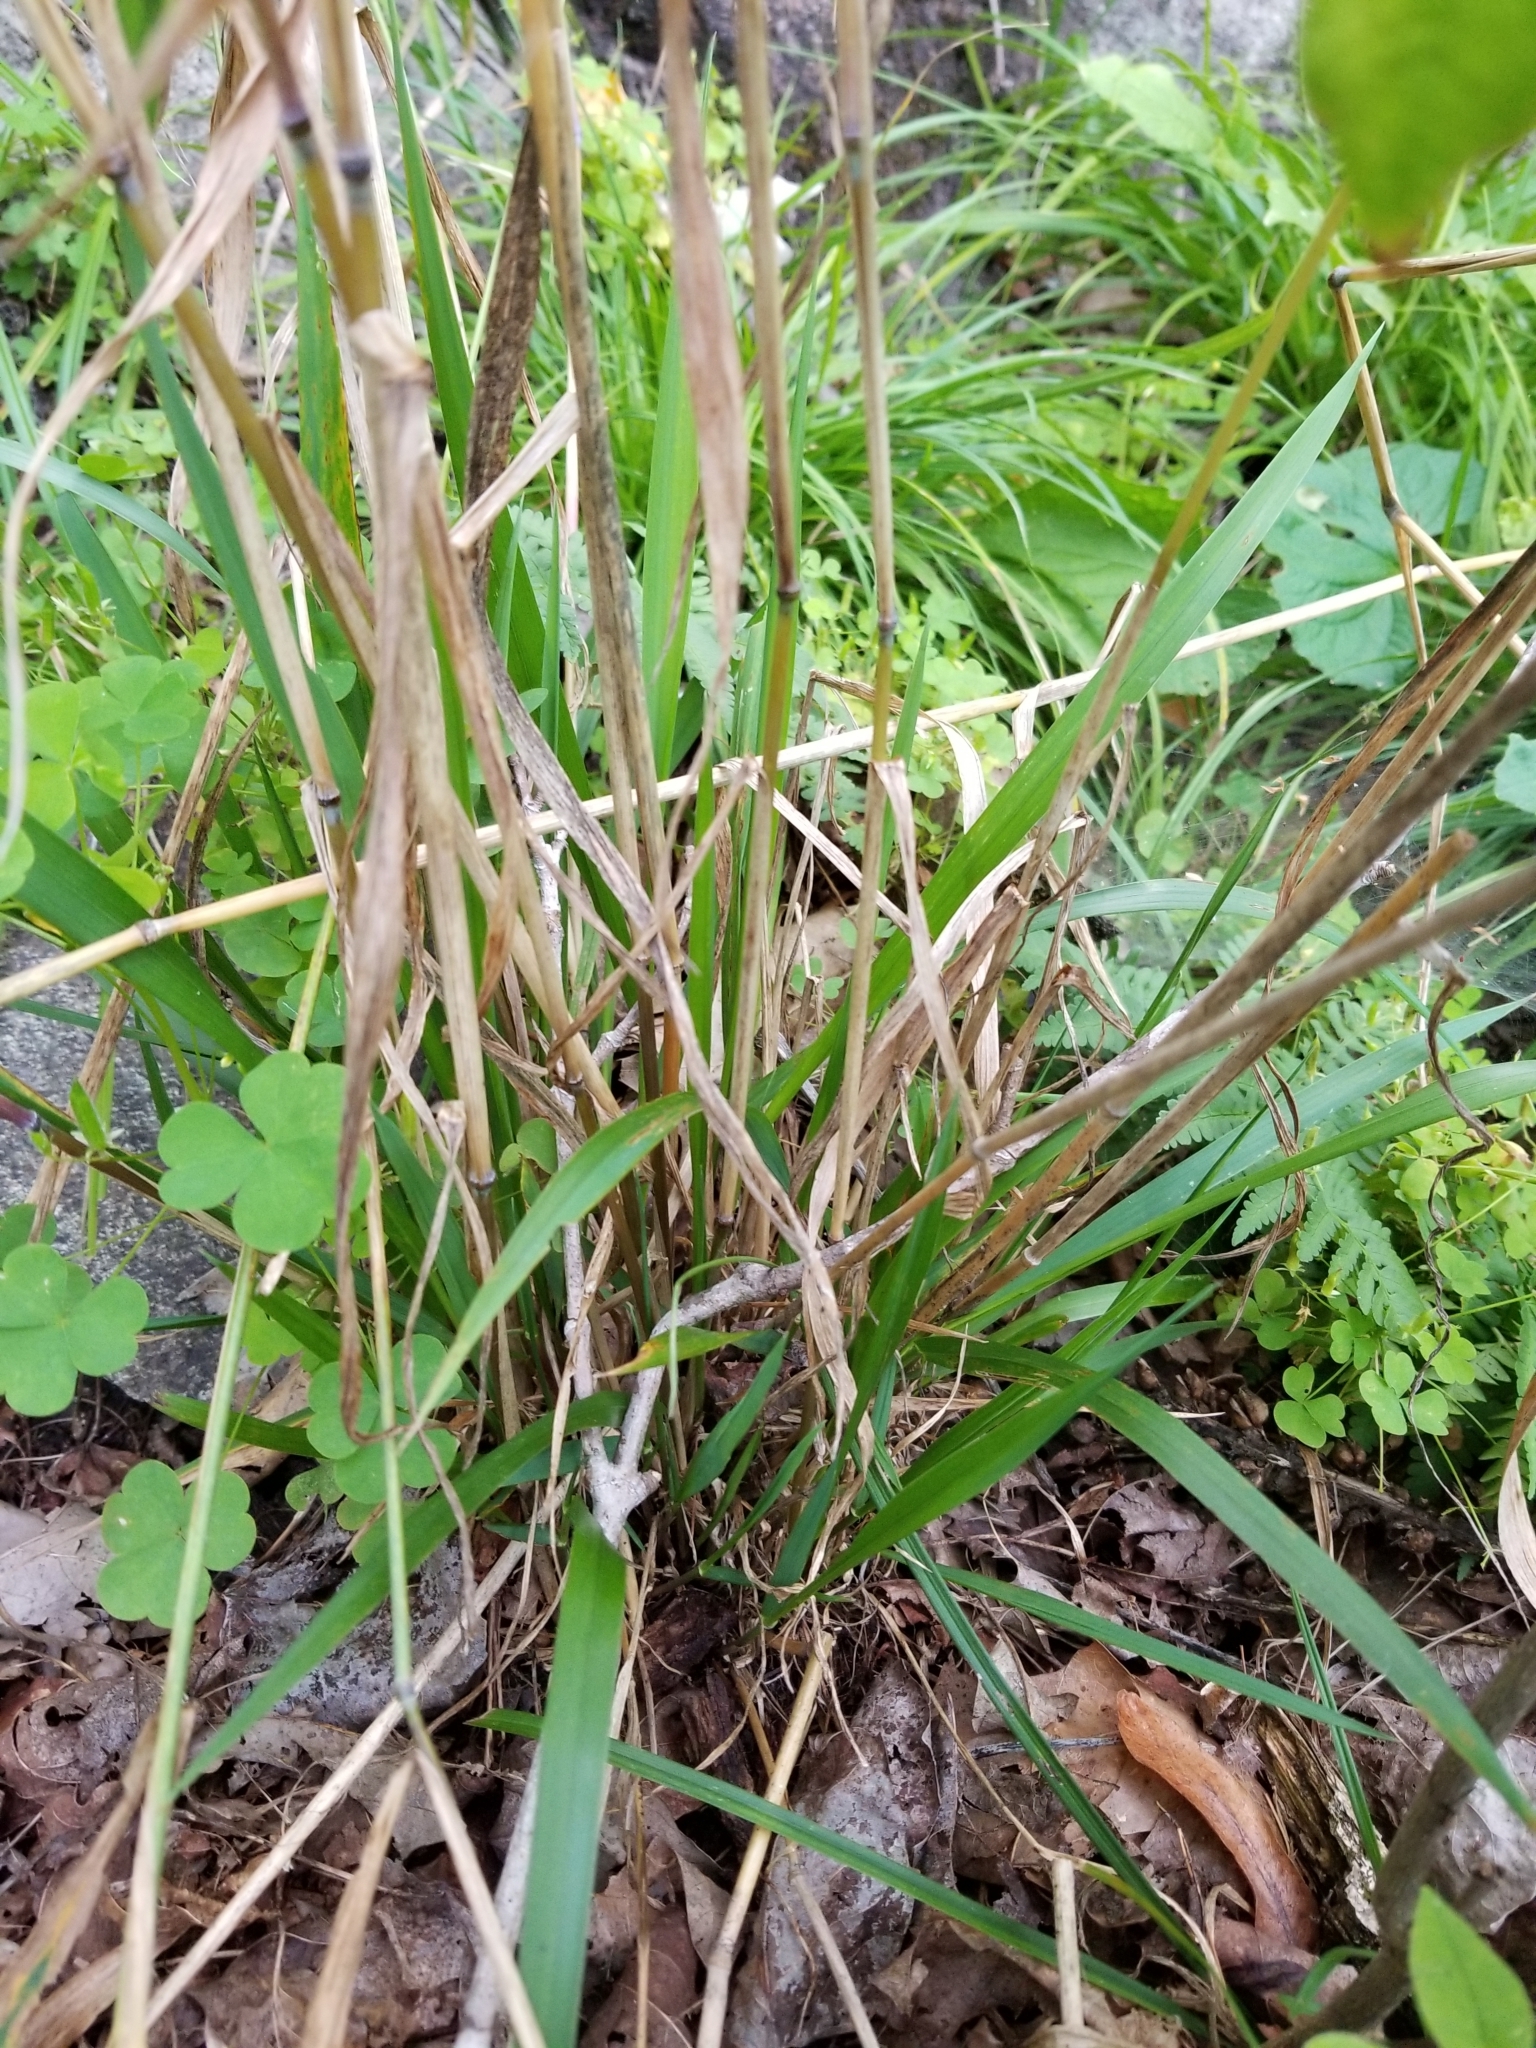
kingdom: Plantae
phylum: Tracheophyta
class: Liliopsida
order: Poales
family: Poaceae
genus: Elymus
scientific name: Elymus hystrix
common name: Bottlebrush grass
